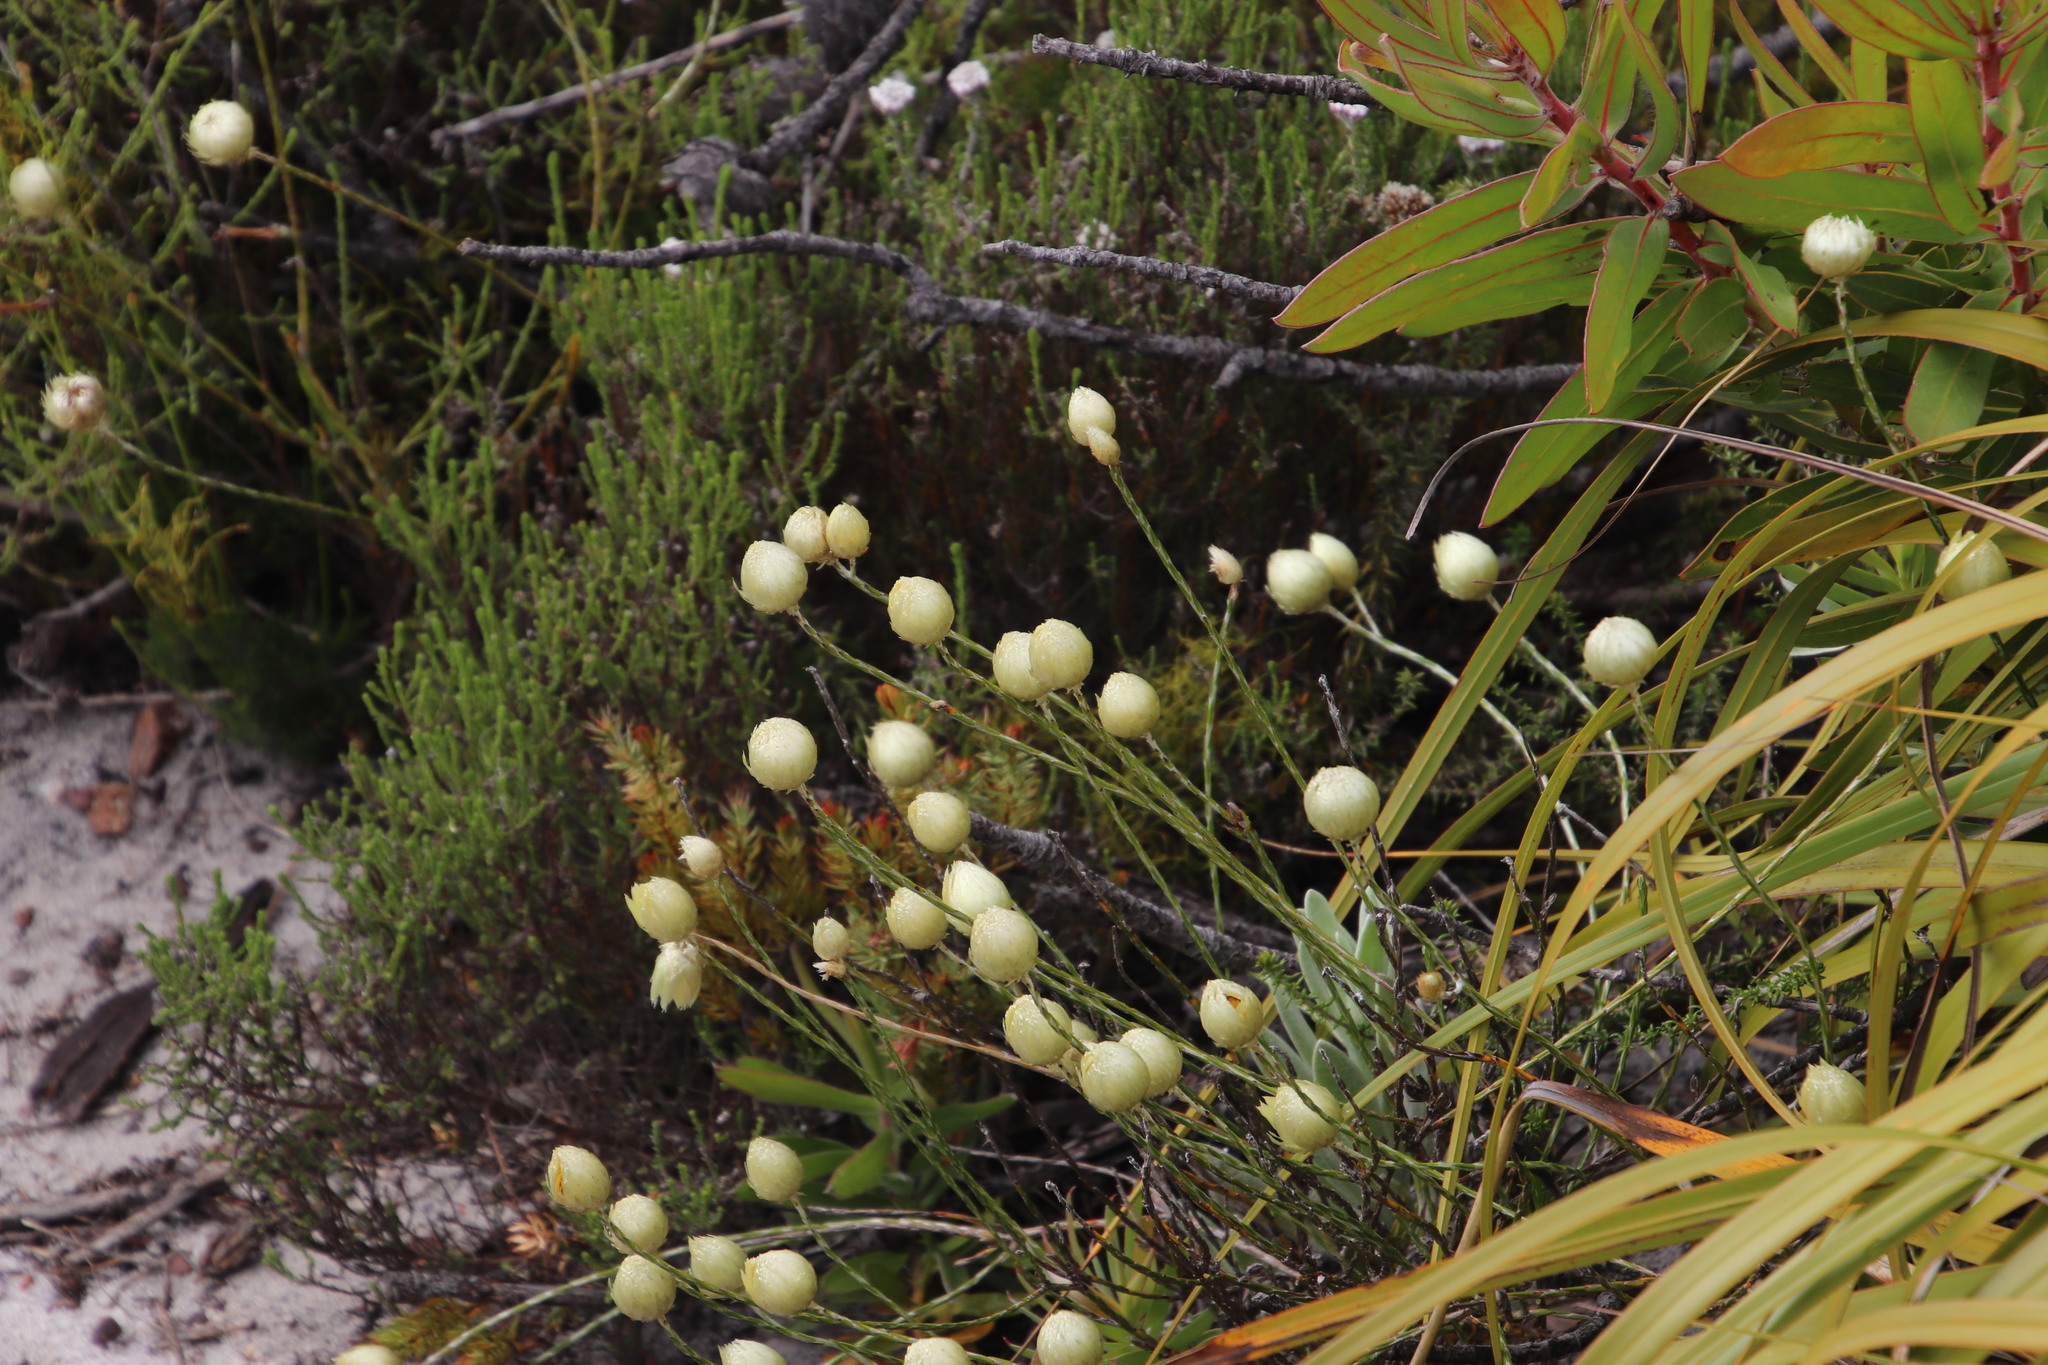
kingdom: Plantae
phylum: Tracheophyta
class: Magnoliopsida
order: Asterales
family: Asteraceae
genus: Edmondia
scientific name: Edmondia sesamoides
